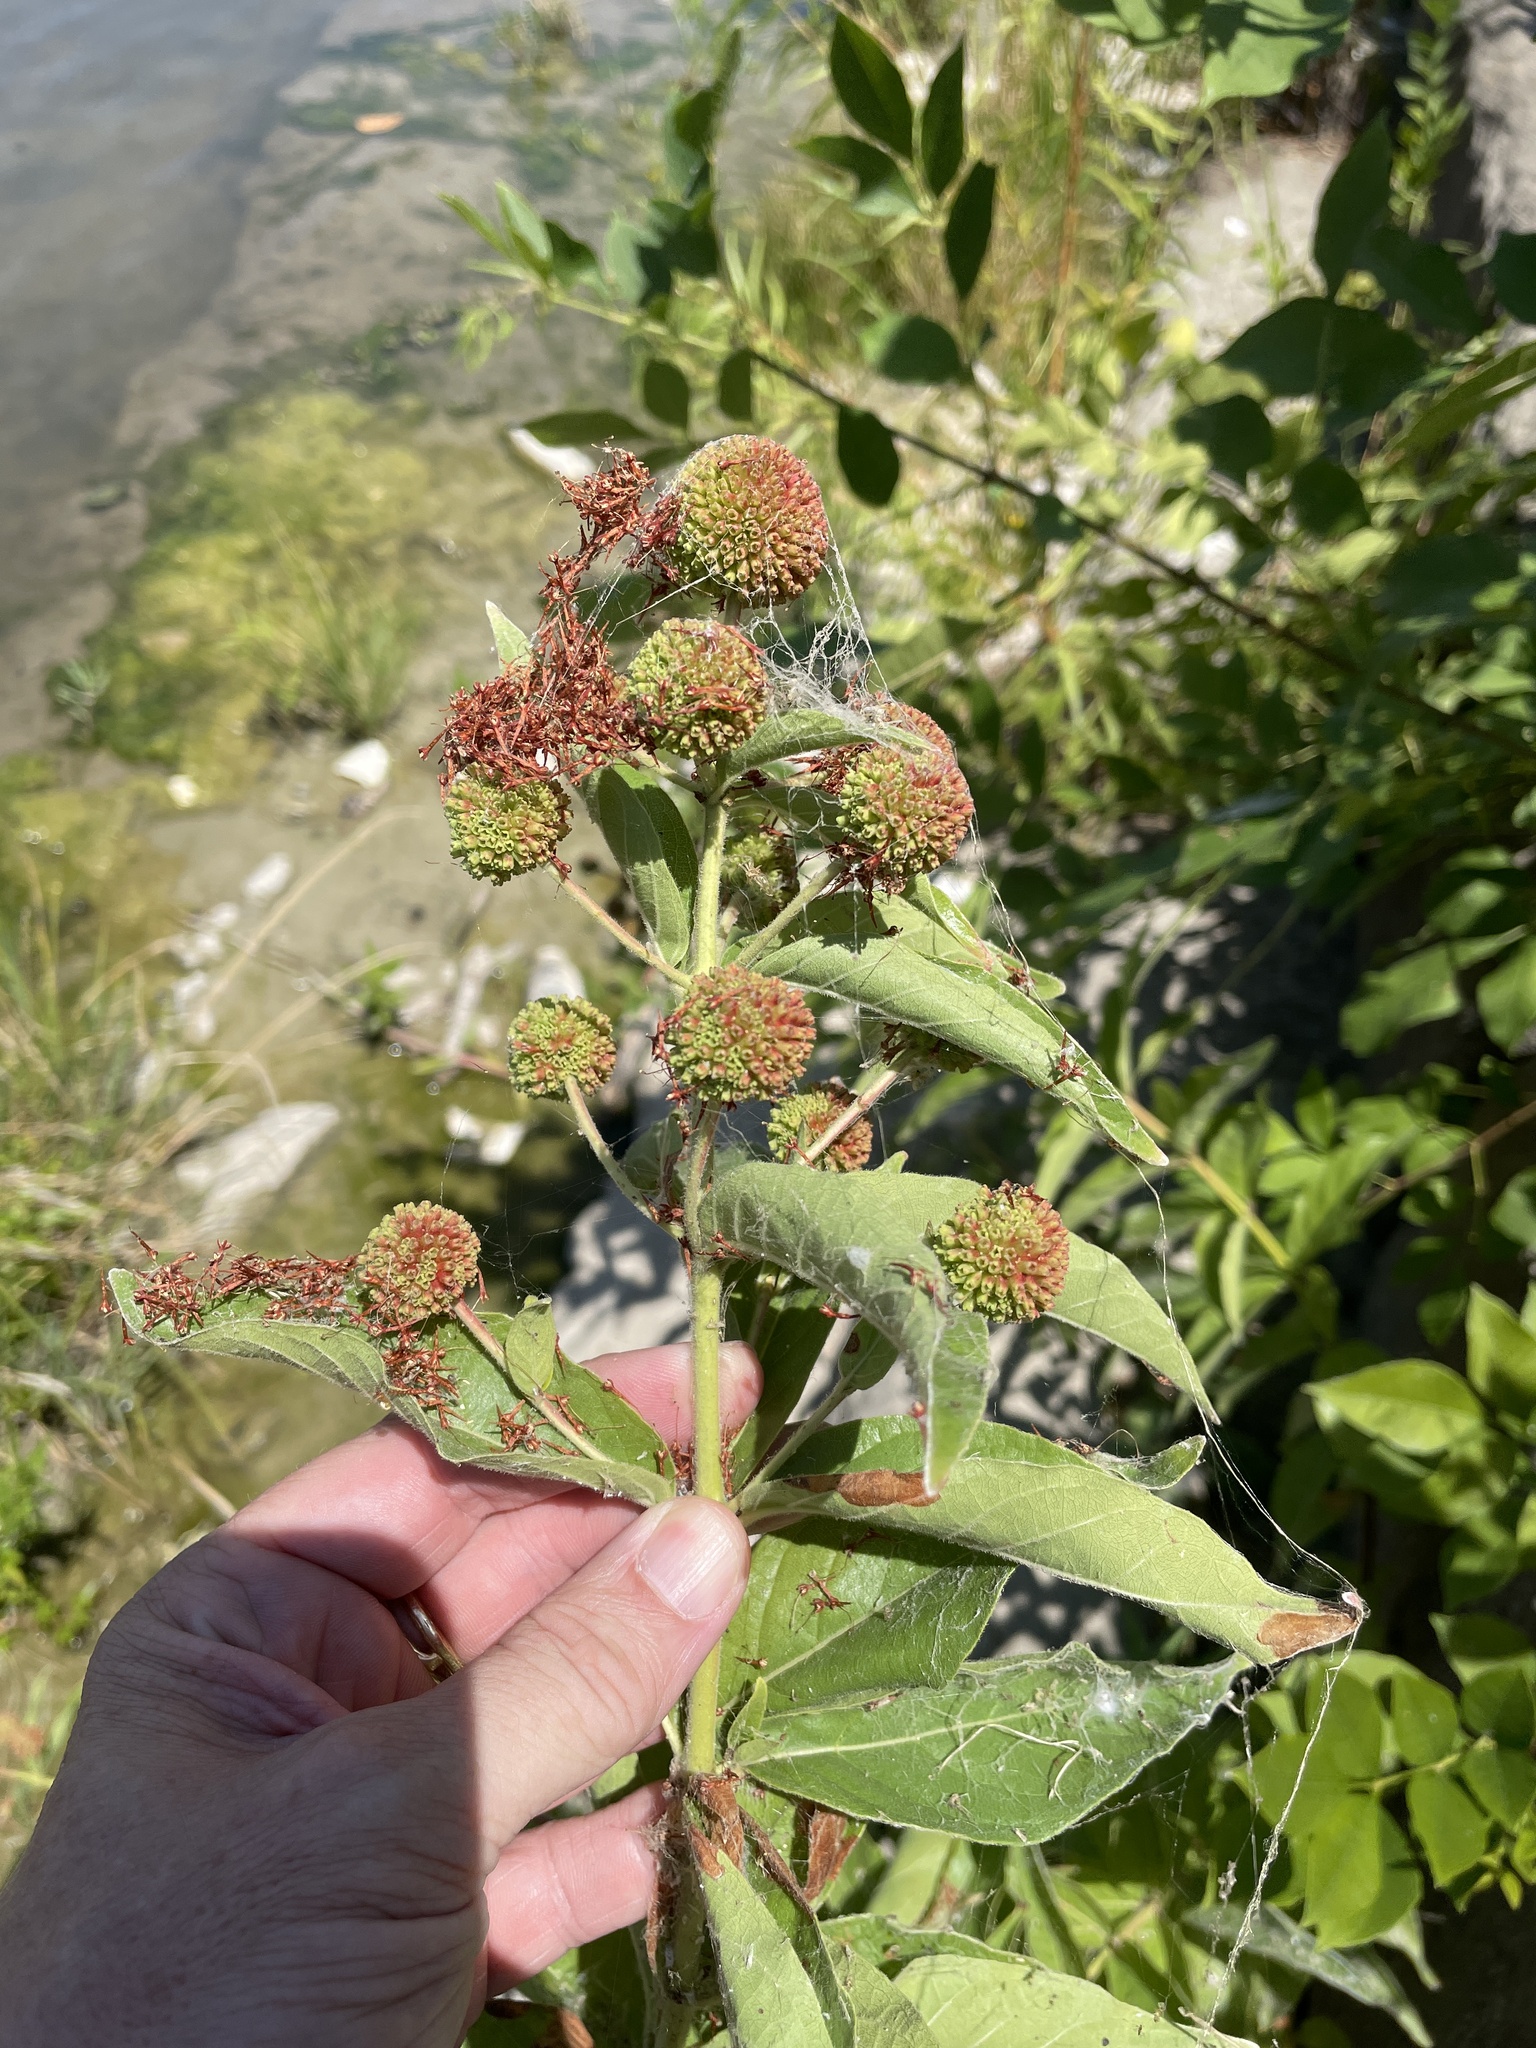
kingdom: Plantae
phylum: Tracheophyta
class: Magnoliopsida
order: Gentianales
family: Rubiaceae
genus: Cephalanthus
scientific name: Cephalanthus occidentalis
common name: Button-willow
